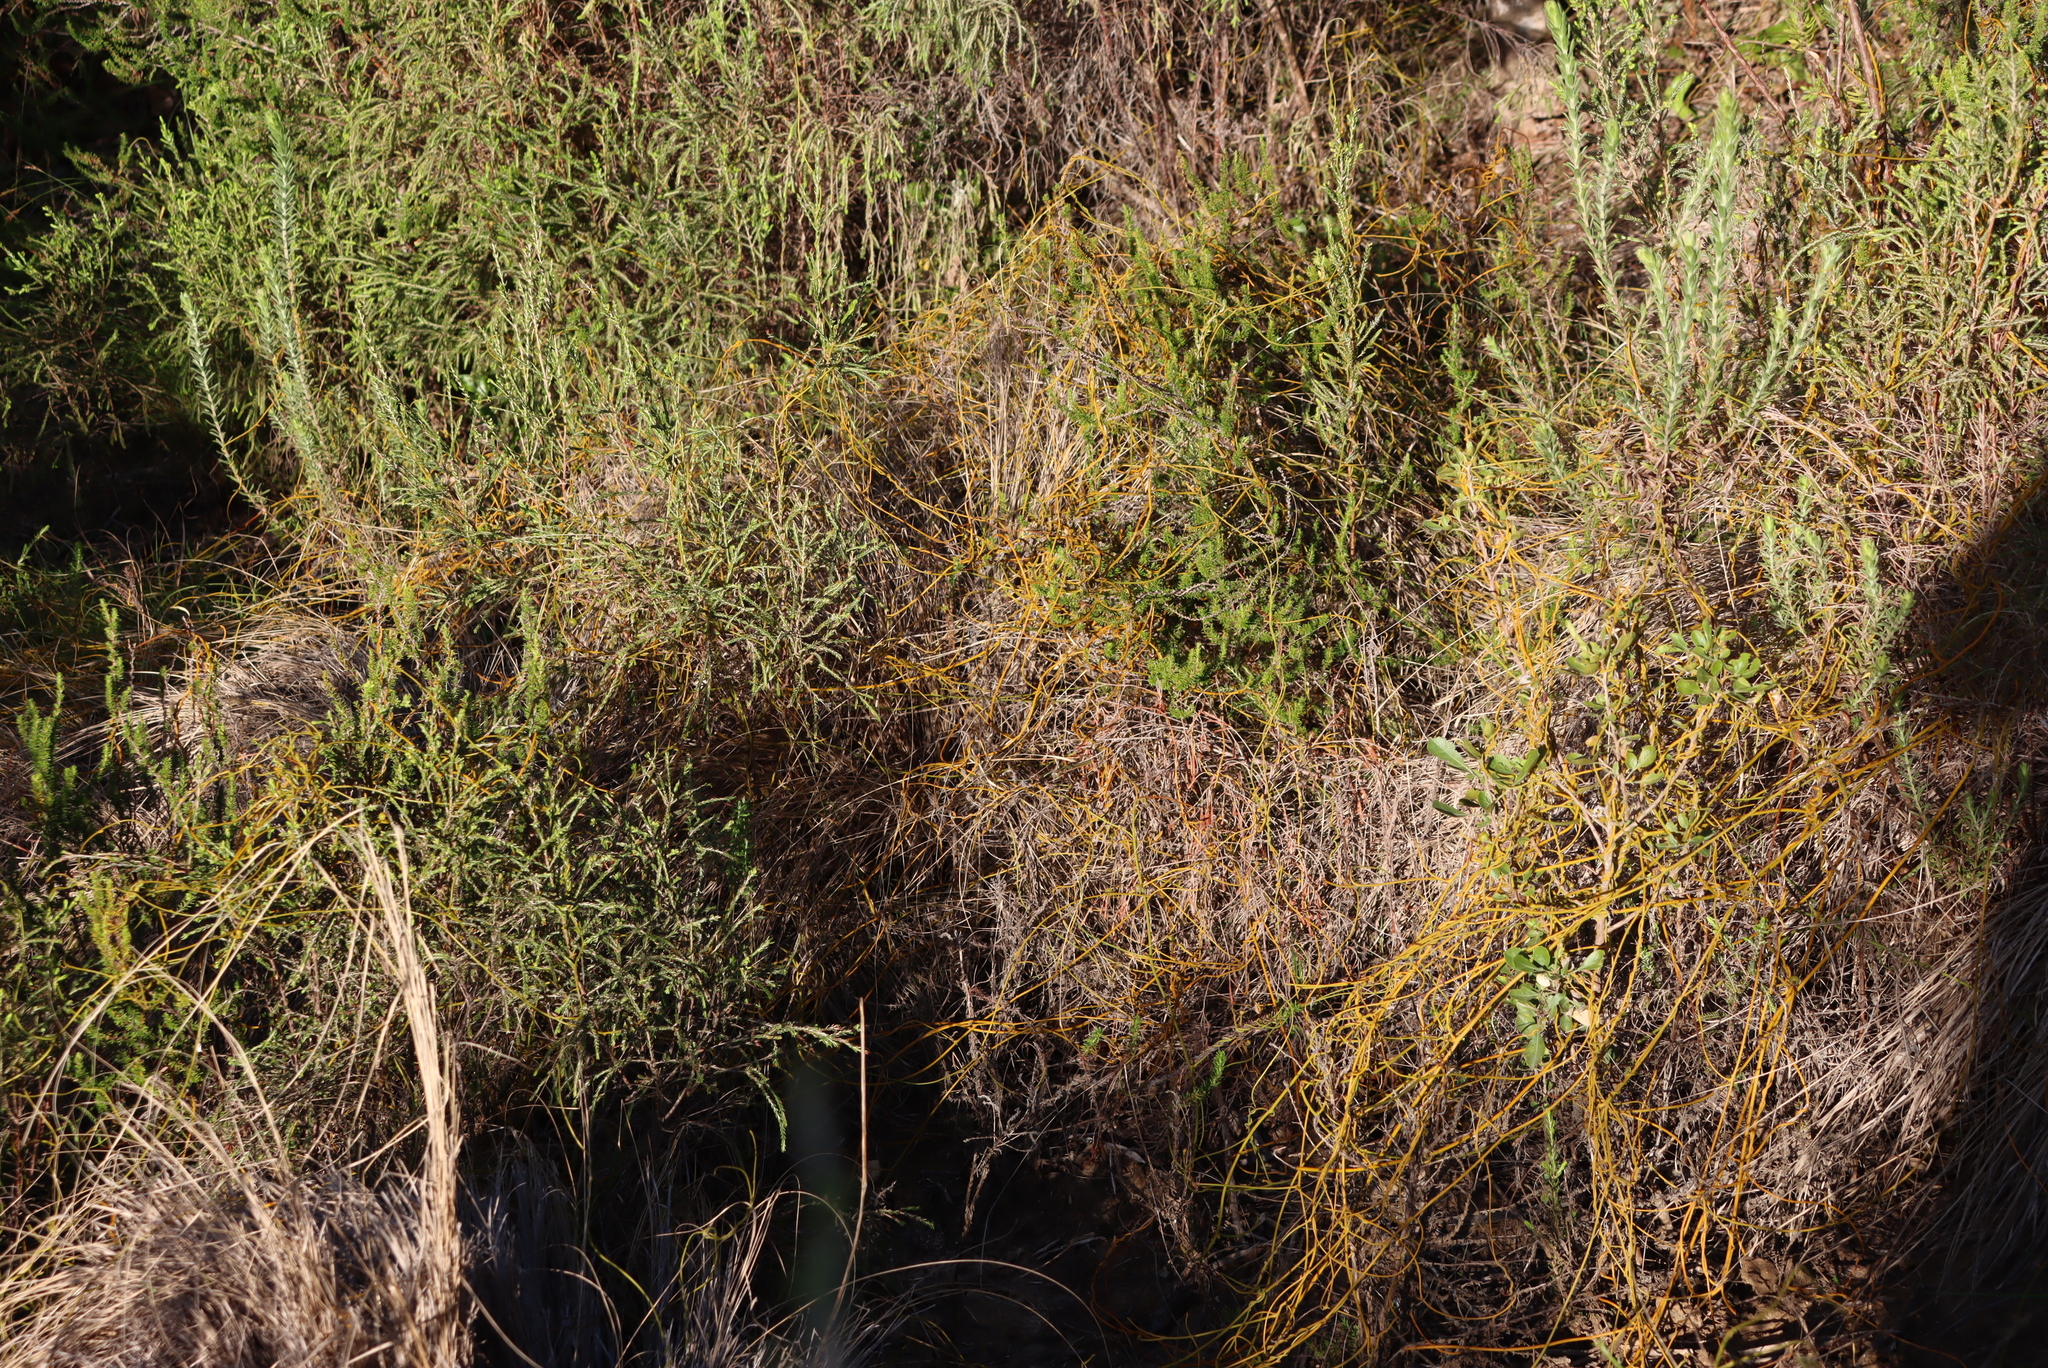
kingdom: Plantae
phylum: Tracheophyta
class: Magnoliopsida
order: Laurales
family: Lauraceae
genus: Cassytha
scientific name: Cassytha ciliolata
